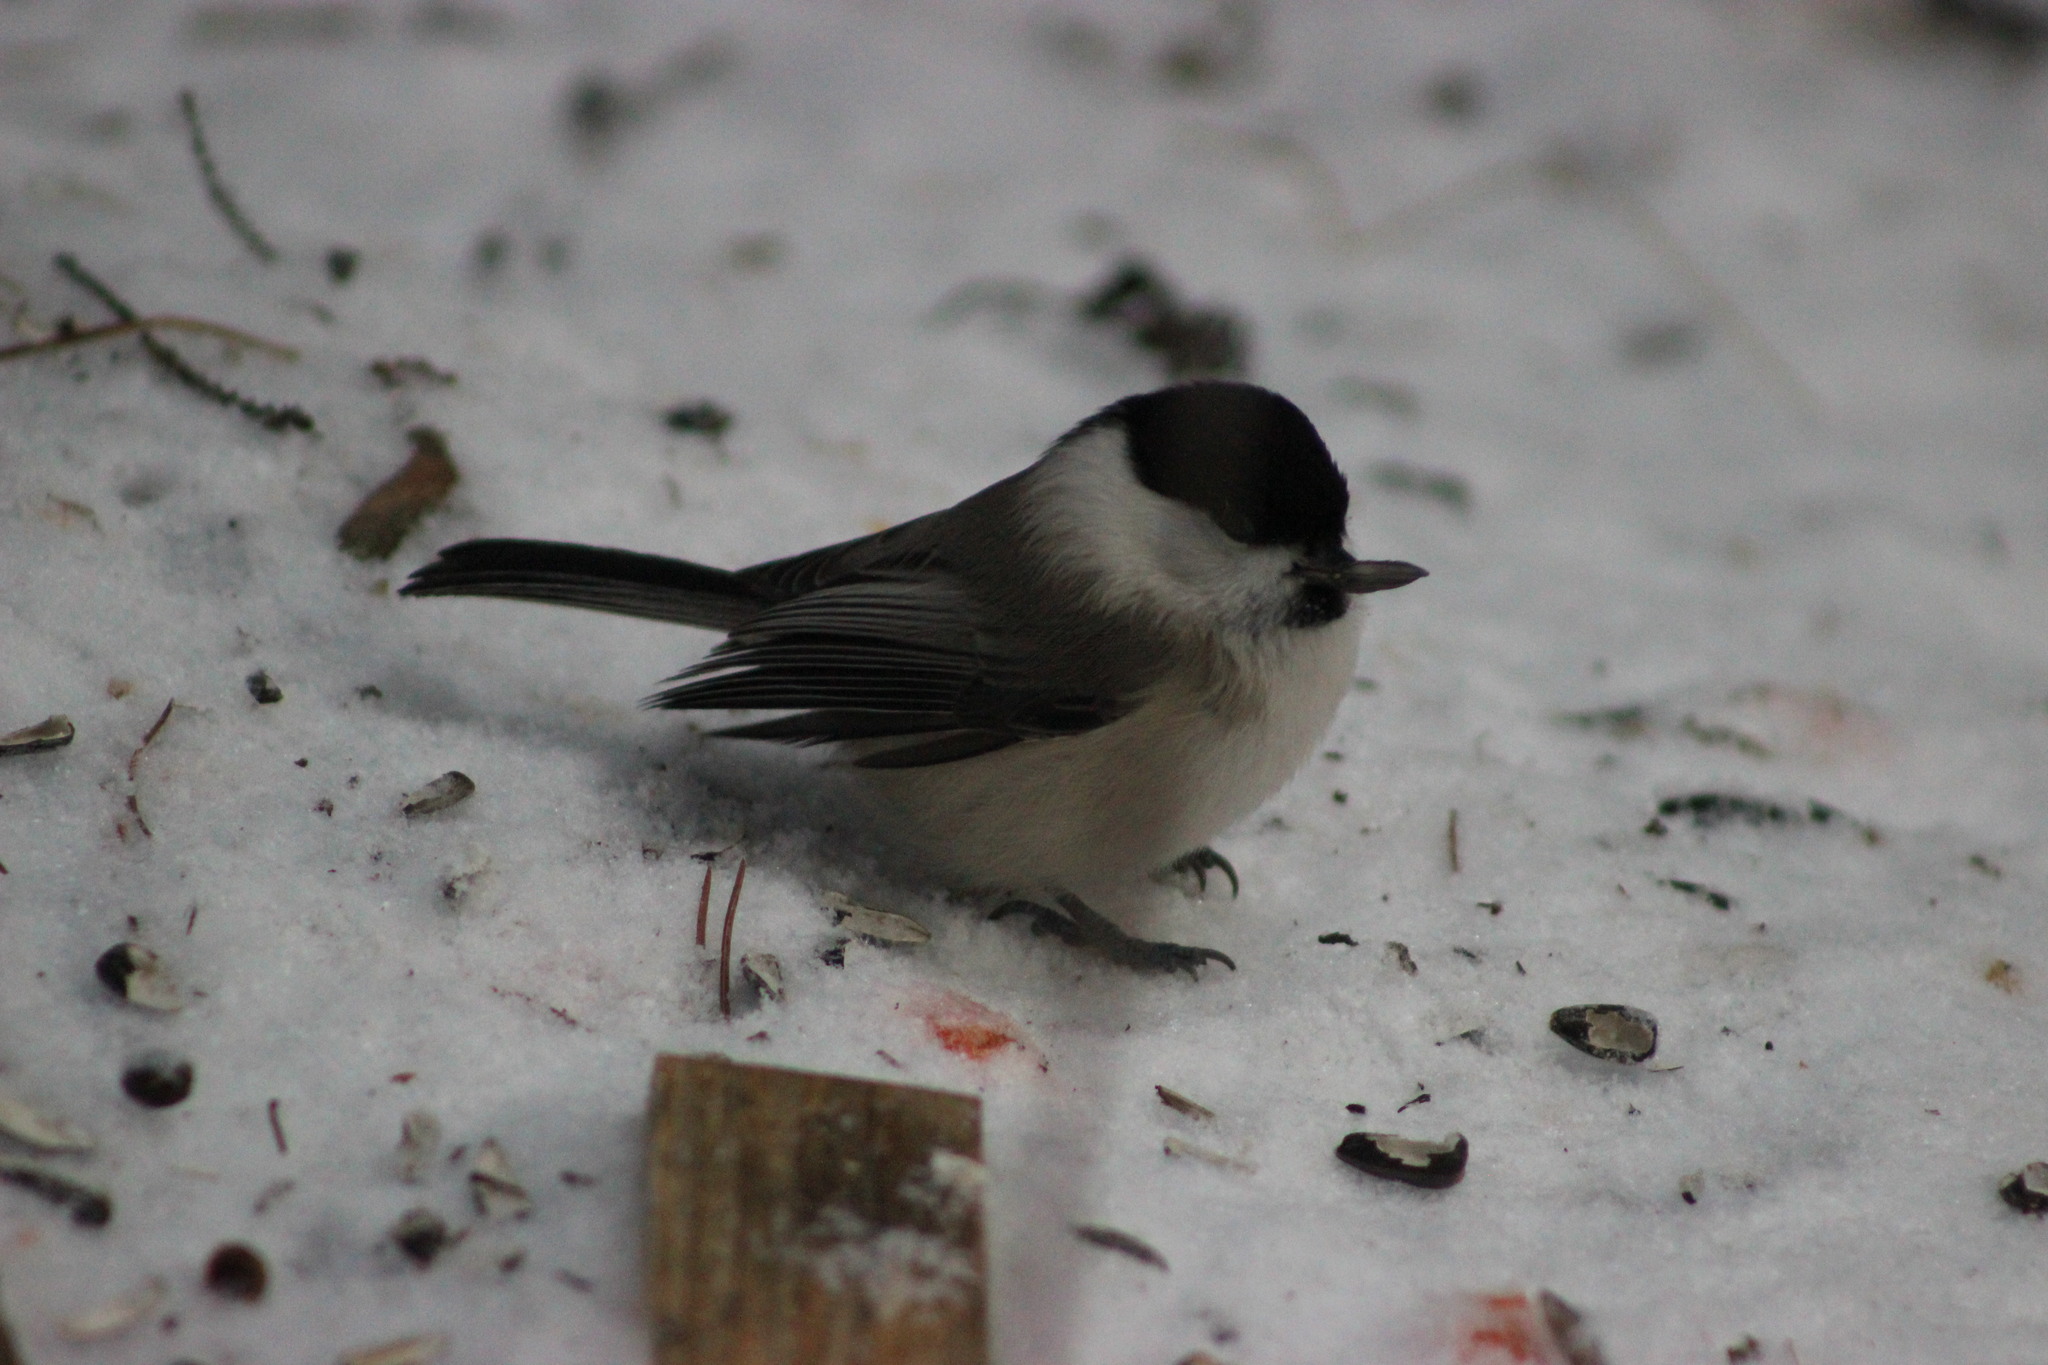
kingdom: Animalia
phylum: Chordata
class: Aves
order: Passeriformes
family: Paridae
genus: Poecile
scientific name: Poecile montanus
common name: Willow tit
